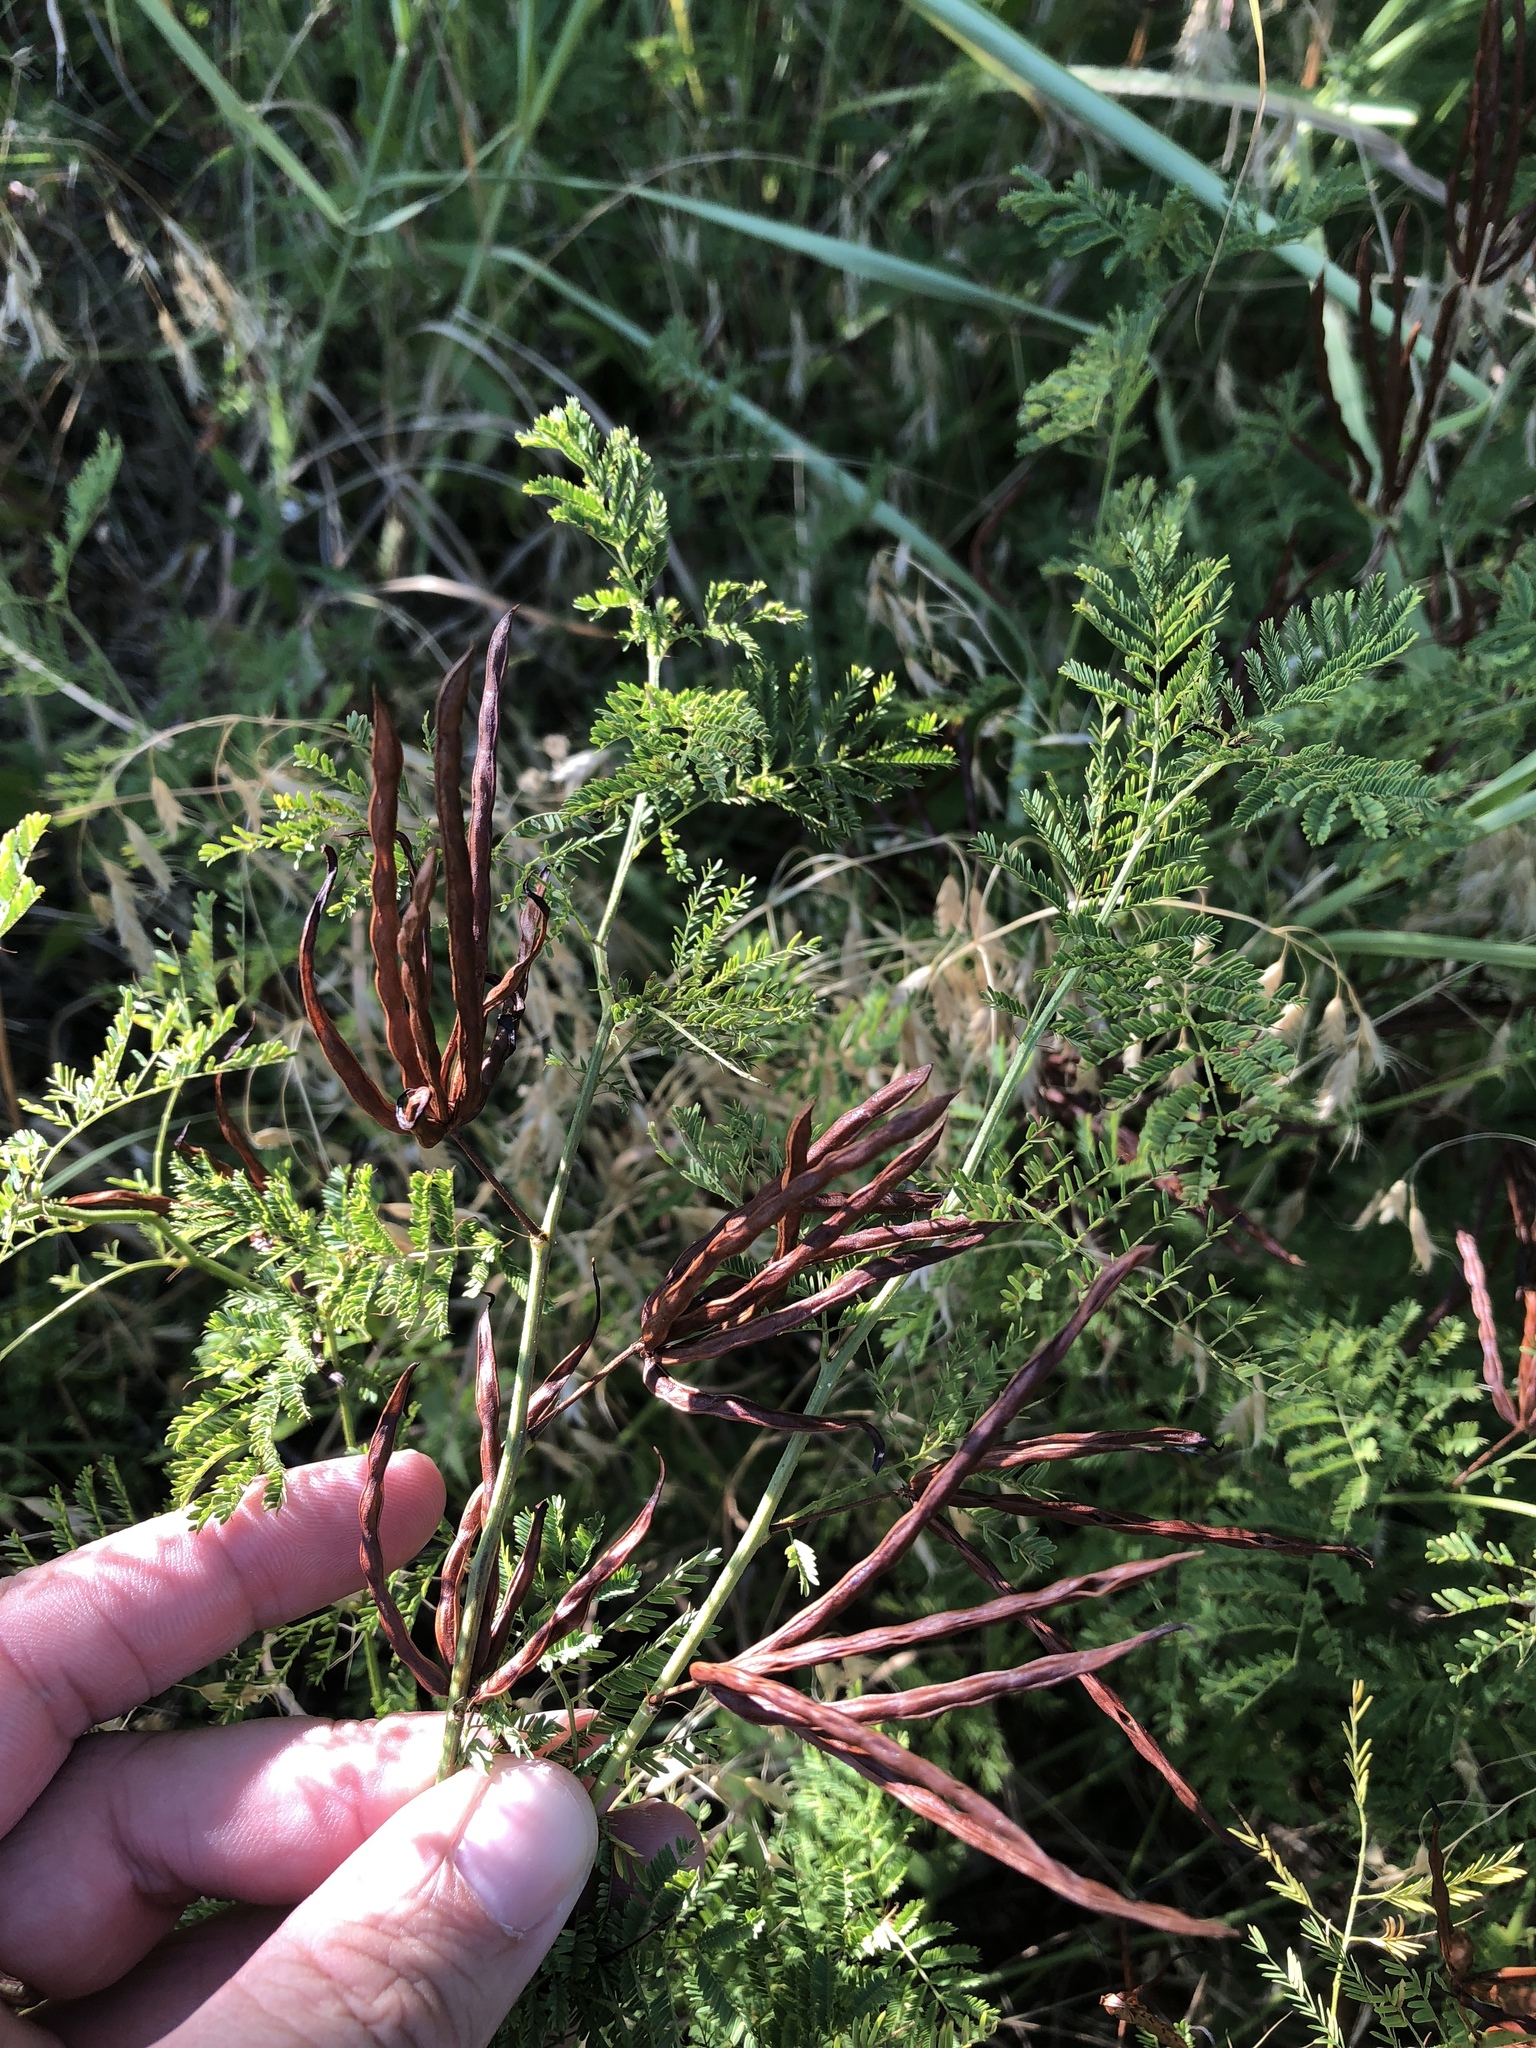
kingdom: Plantae
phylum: Tracheophyta
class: Magnoliopsida
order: Fabales
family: Fabaceae
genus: Desmanthus
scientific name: Desmanthus leptolobus
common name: Prairie-mimosa
